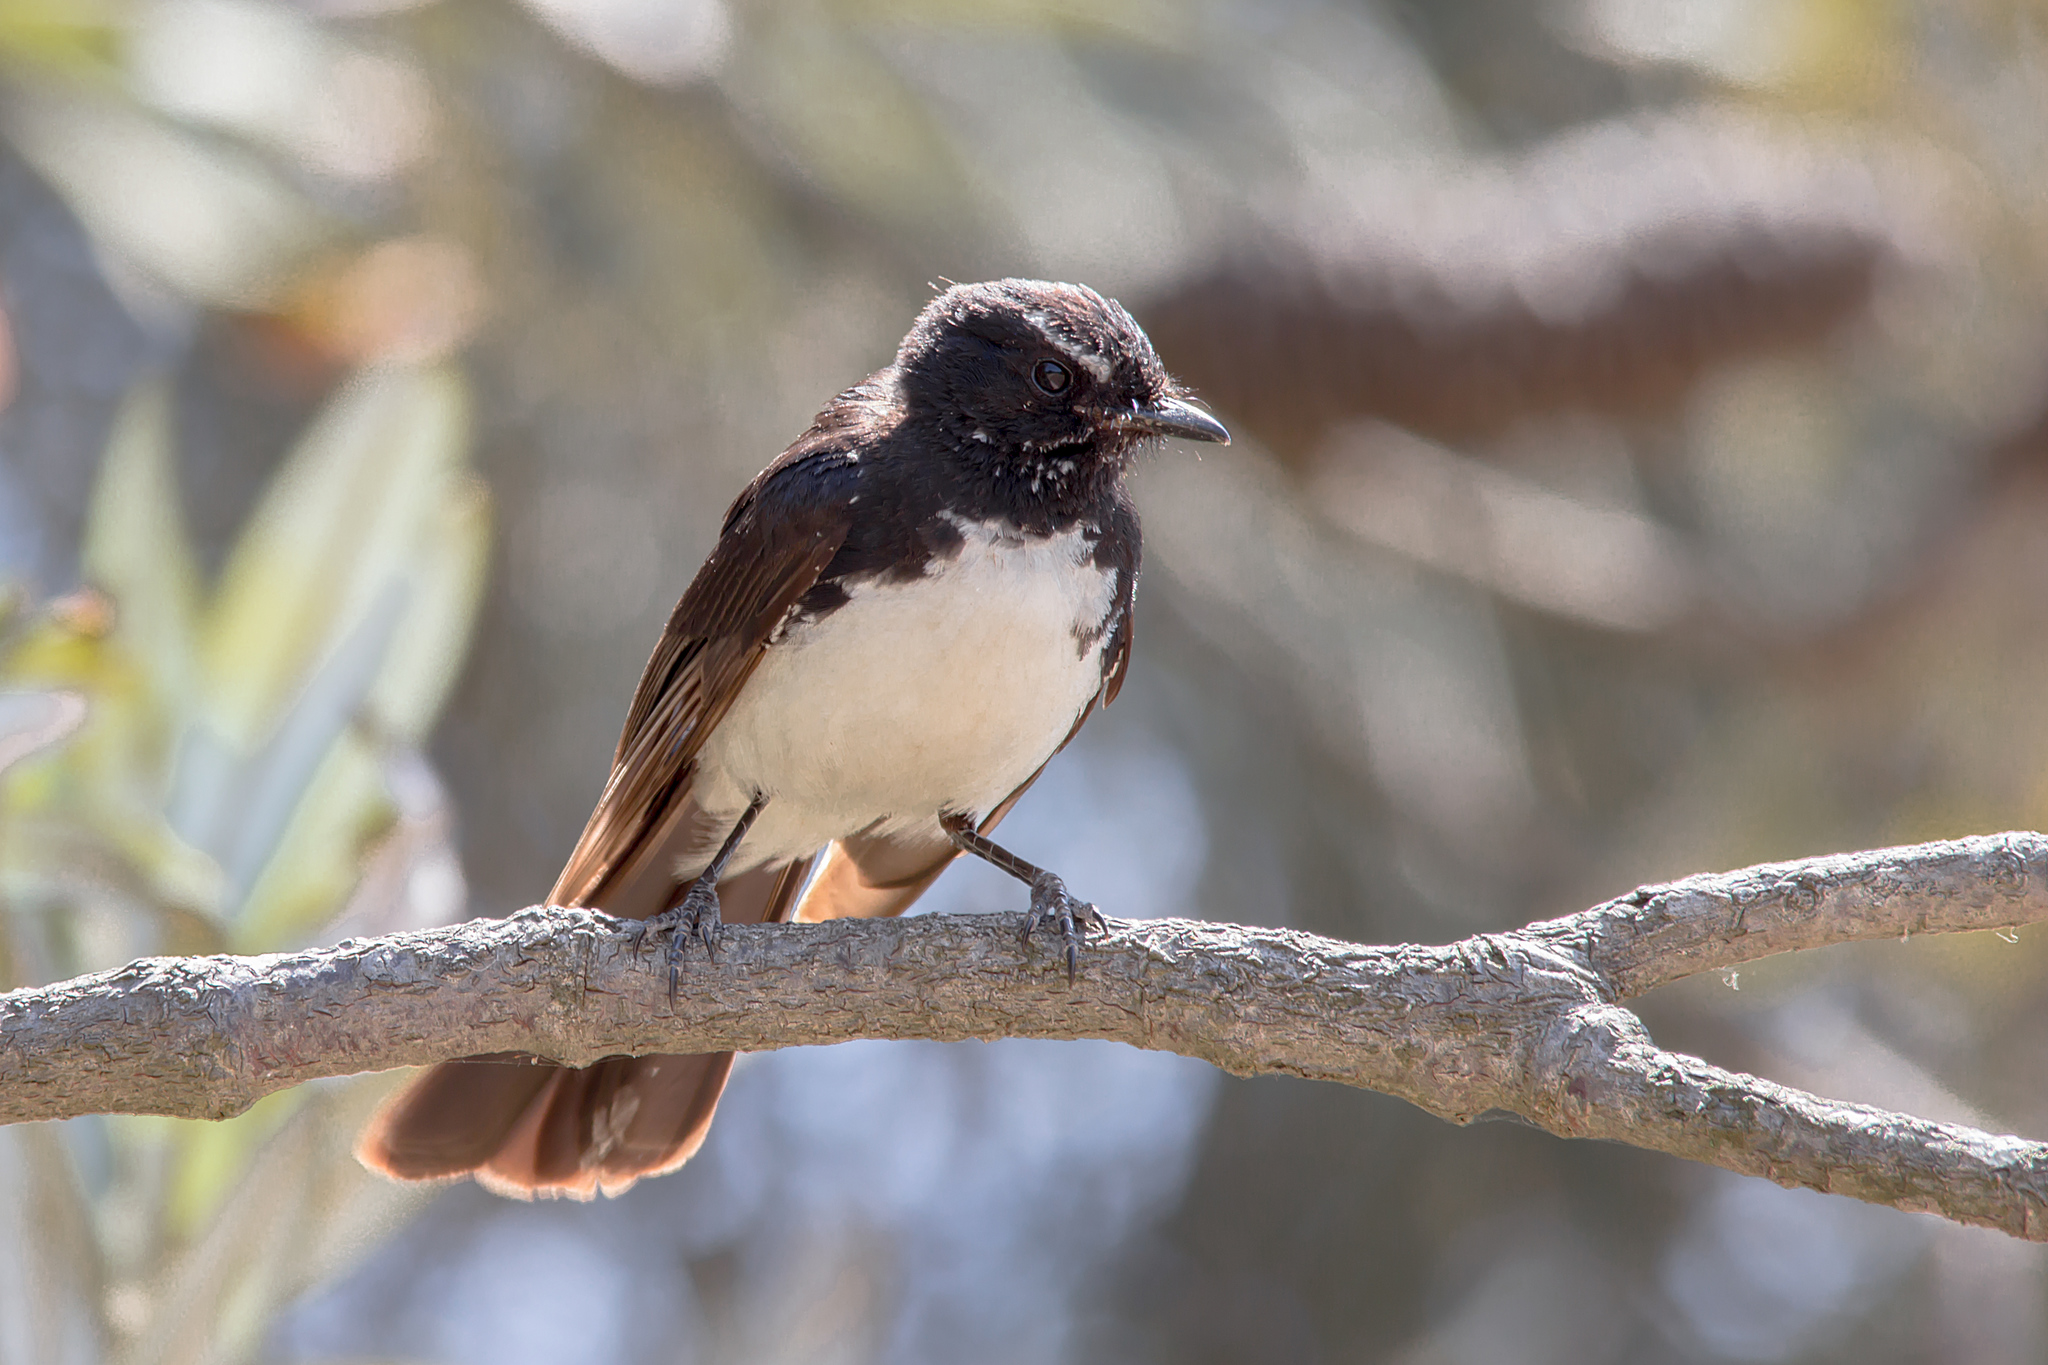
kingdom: Animalia
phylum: Chordata
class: Aves
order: Passeriformes
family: Rhipiduridae
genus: Rhipidura
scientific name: Rhipidura leucophrys
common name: Willie wagtail
